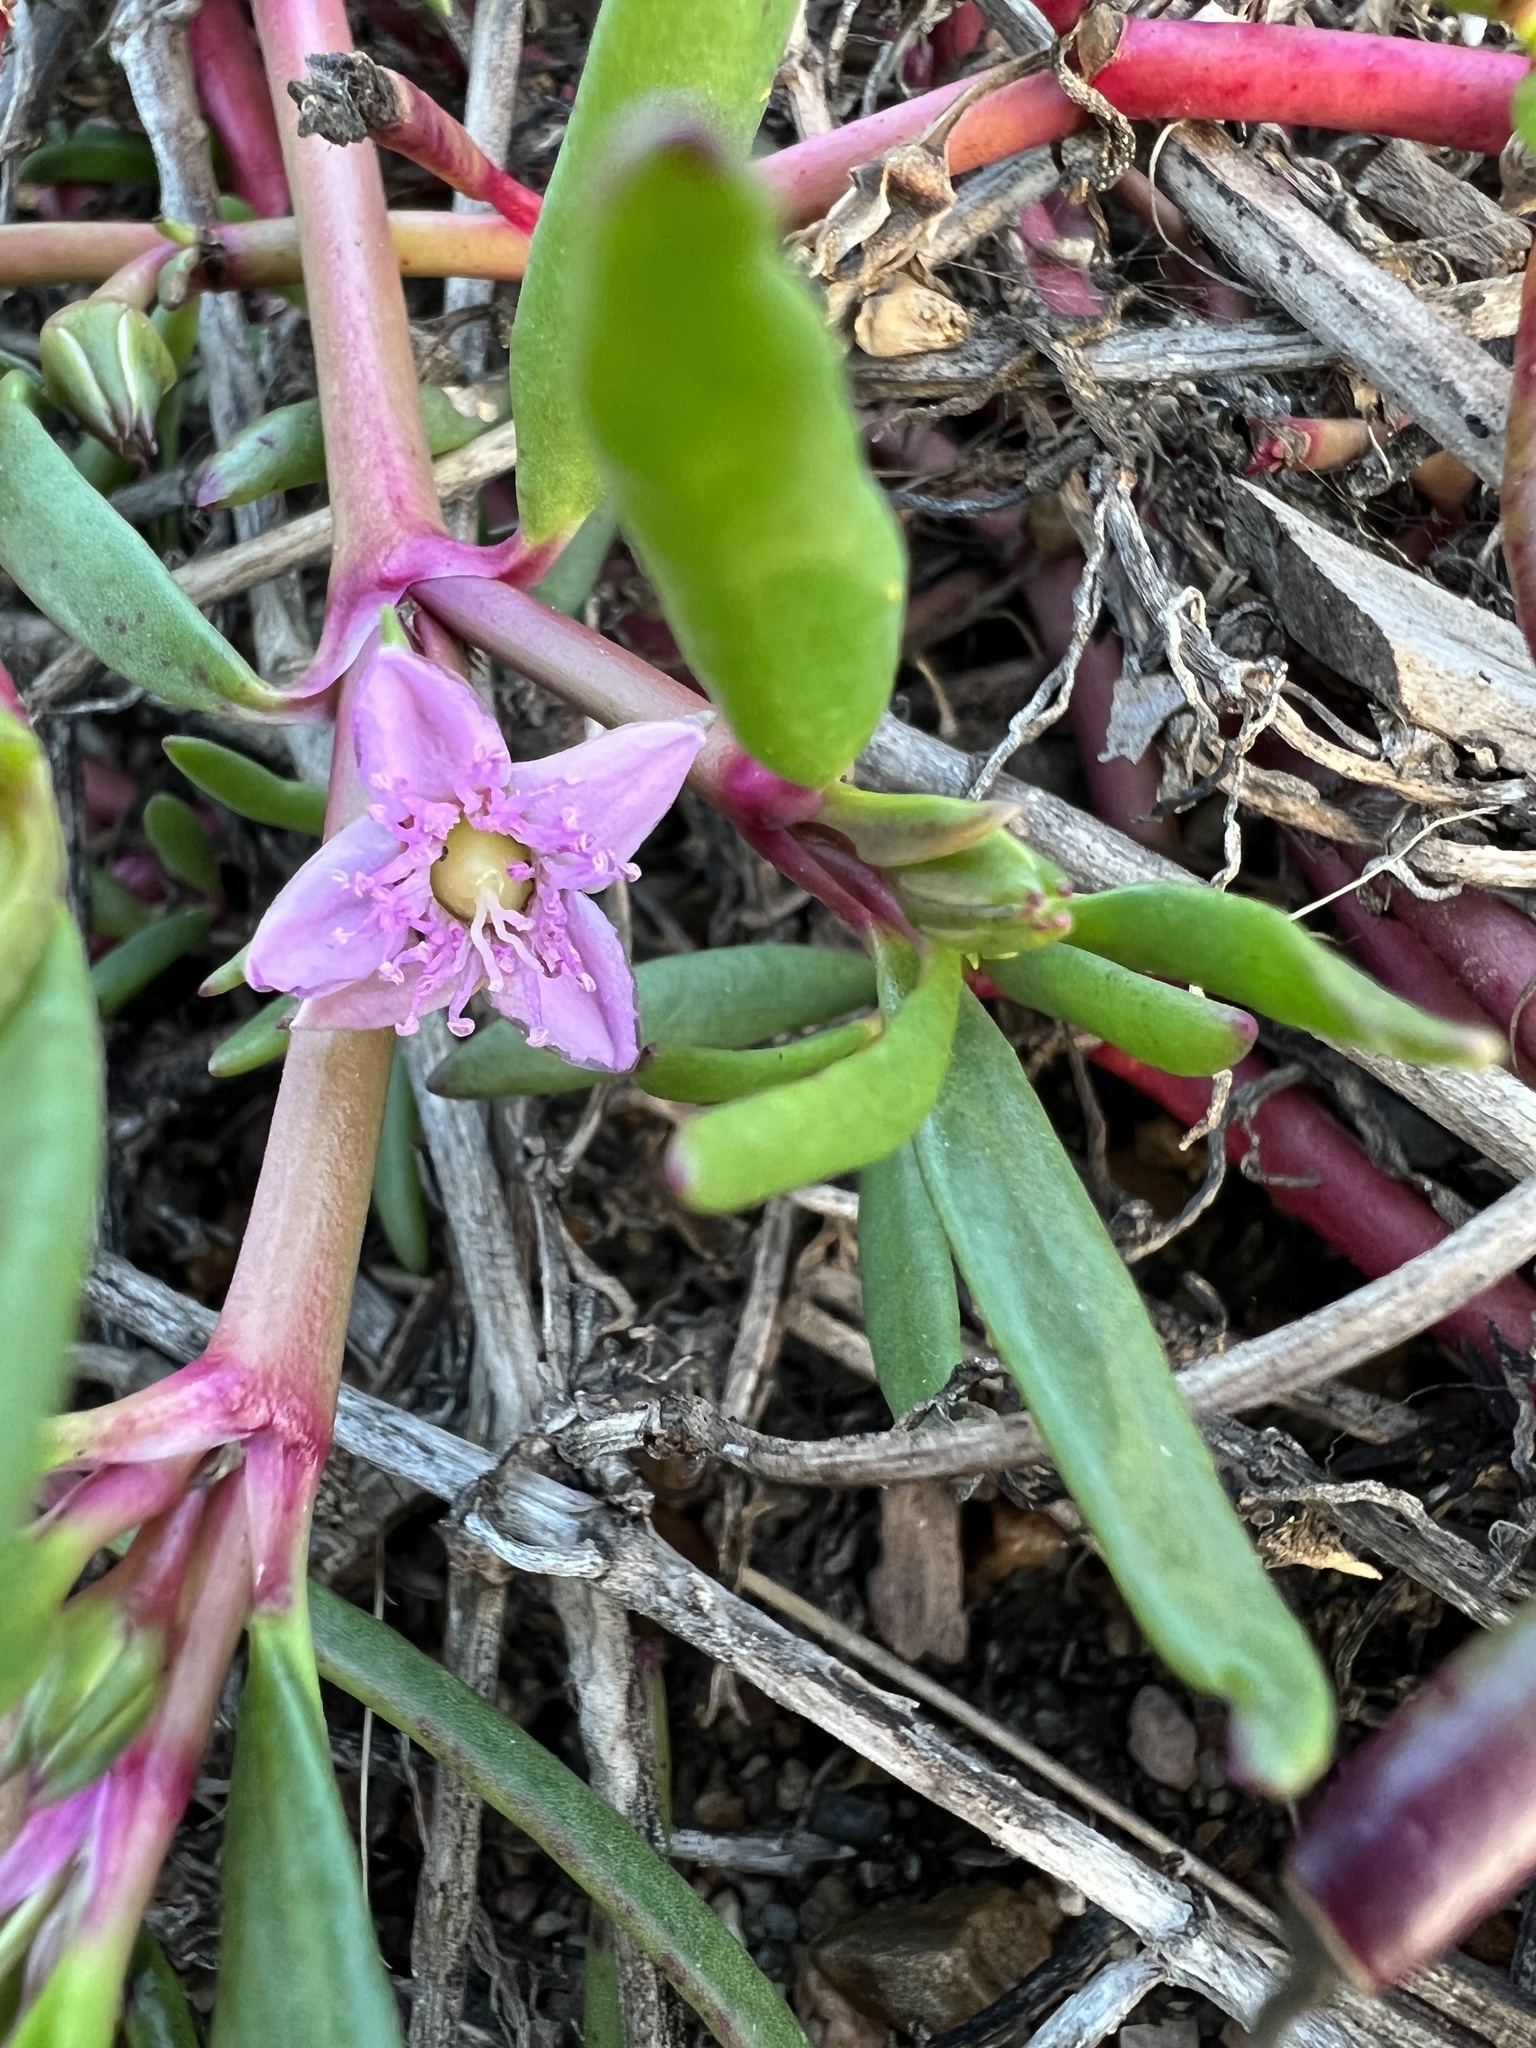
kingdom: Plantae
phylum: Tracheophyta
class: Magnoliopsida
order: Caryophyllales
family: Aizoaceae
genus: Sesuvium
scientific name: Sesuvium portulacastrum
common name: Sea-purslane
